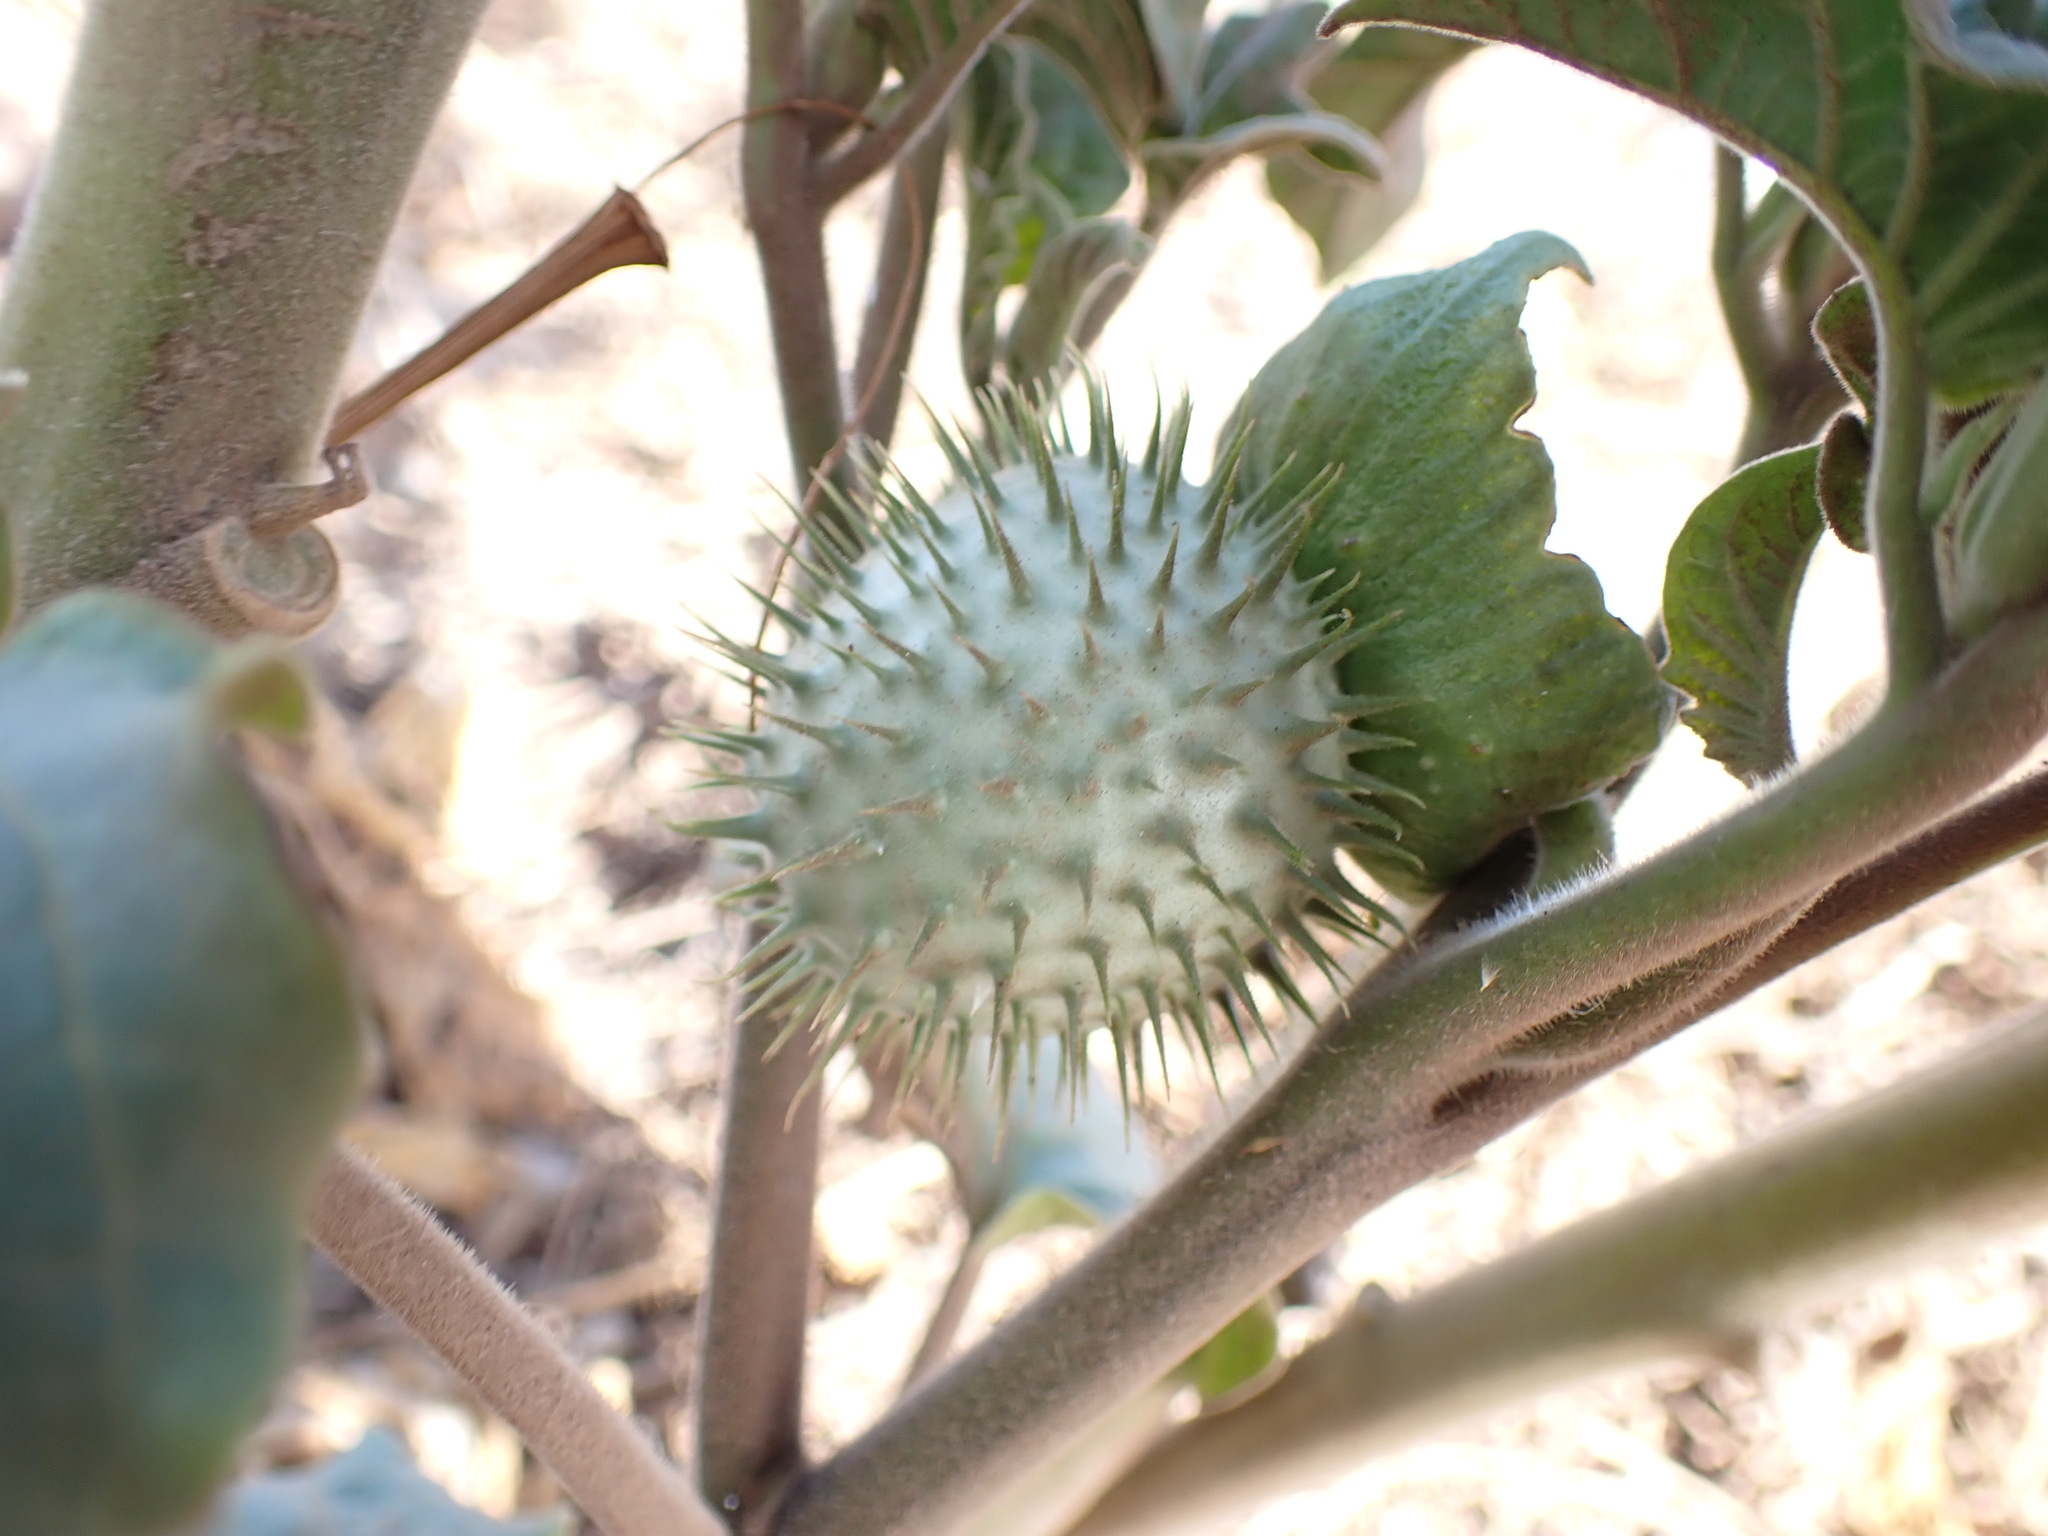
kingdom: Plantae
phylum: Tracheophyta
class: Magnoliopsida
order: Solanales
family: Solanaceae
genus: Datura
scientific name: Datura innoxia
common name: Downy thorn-apple
